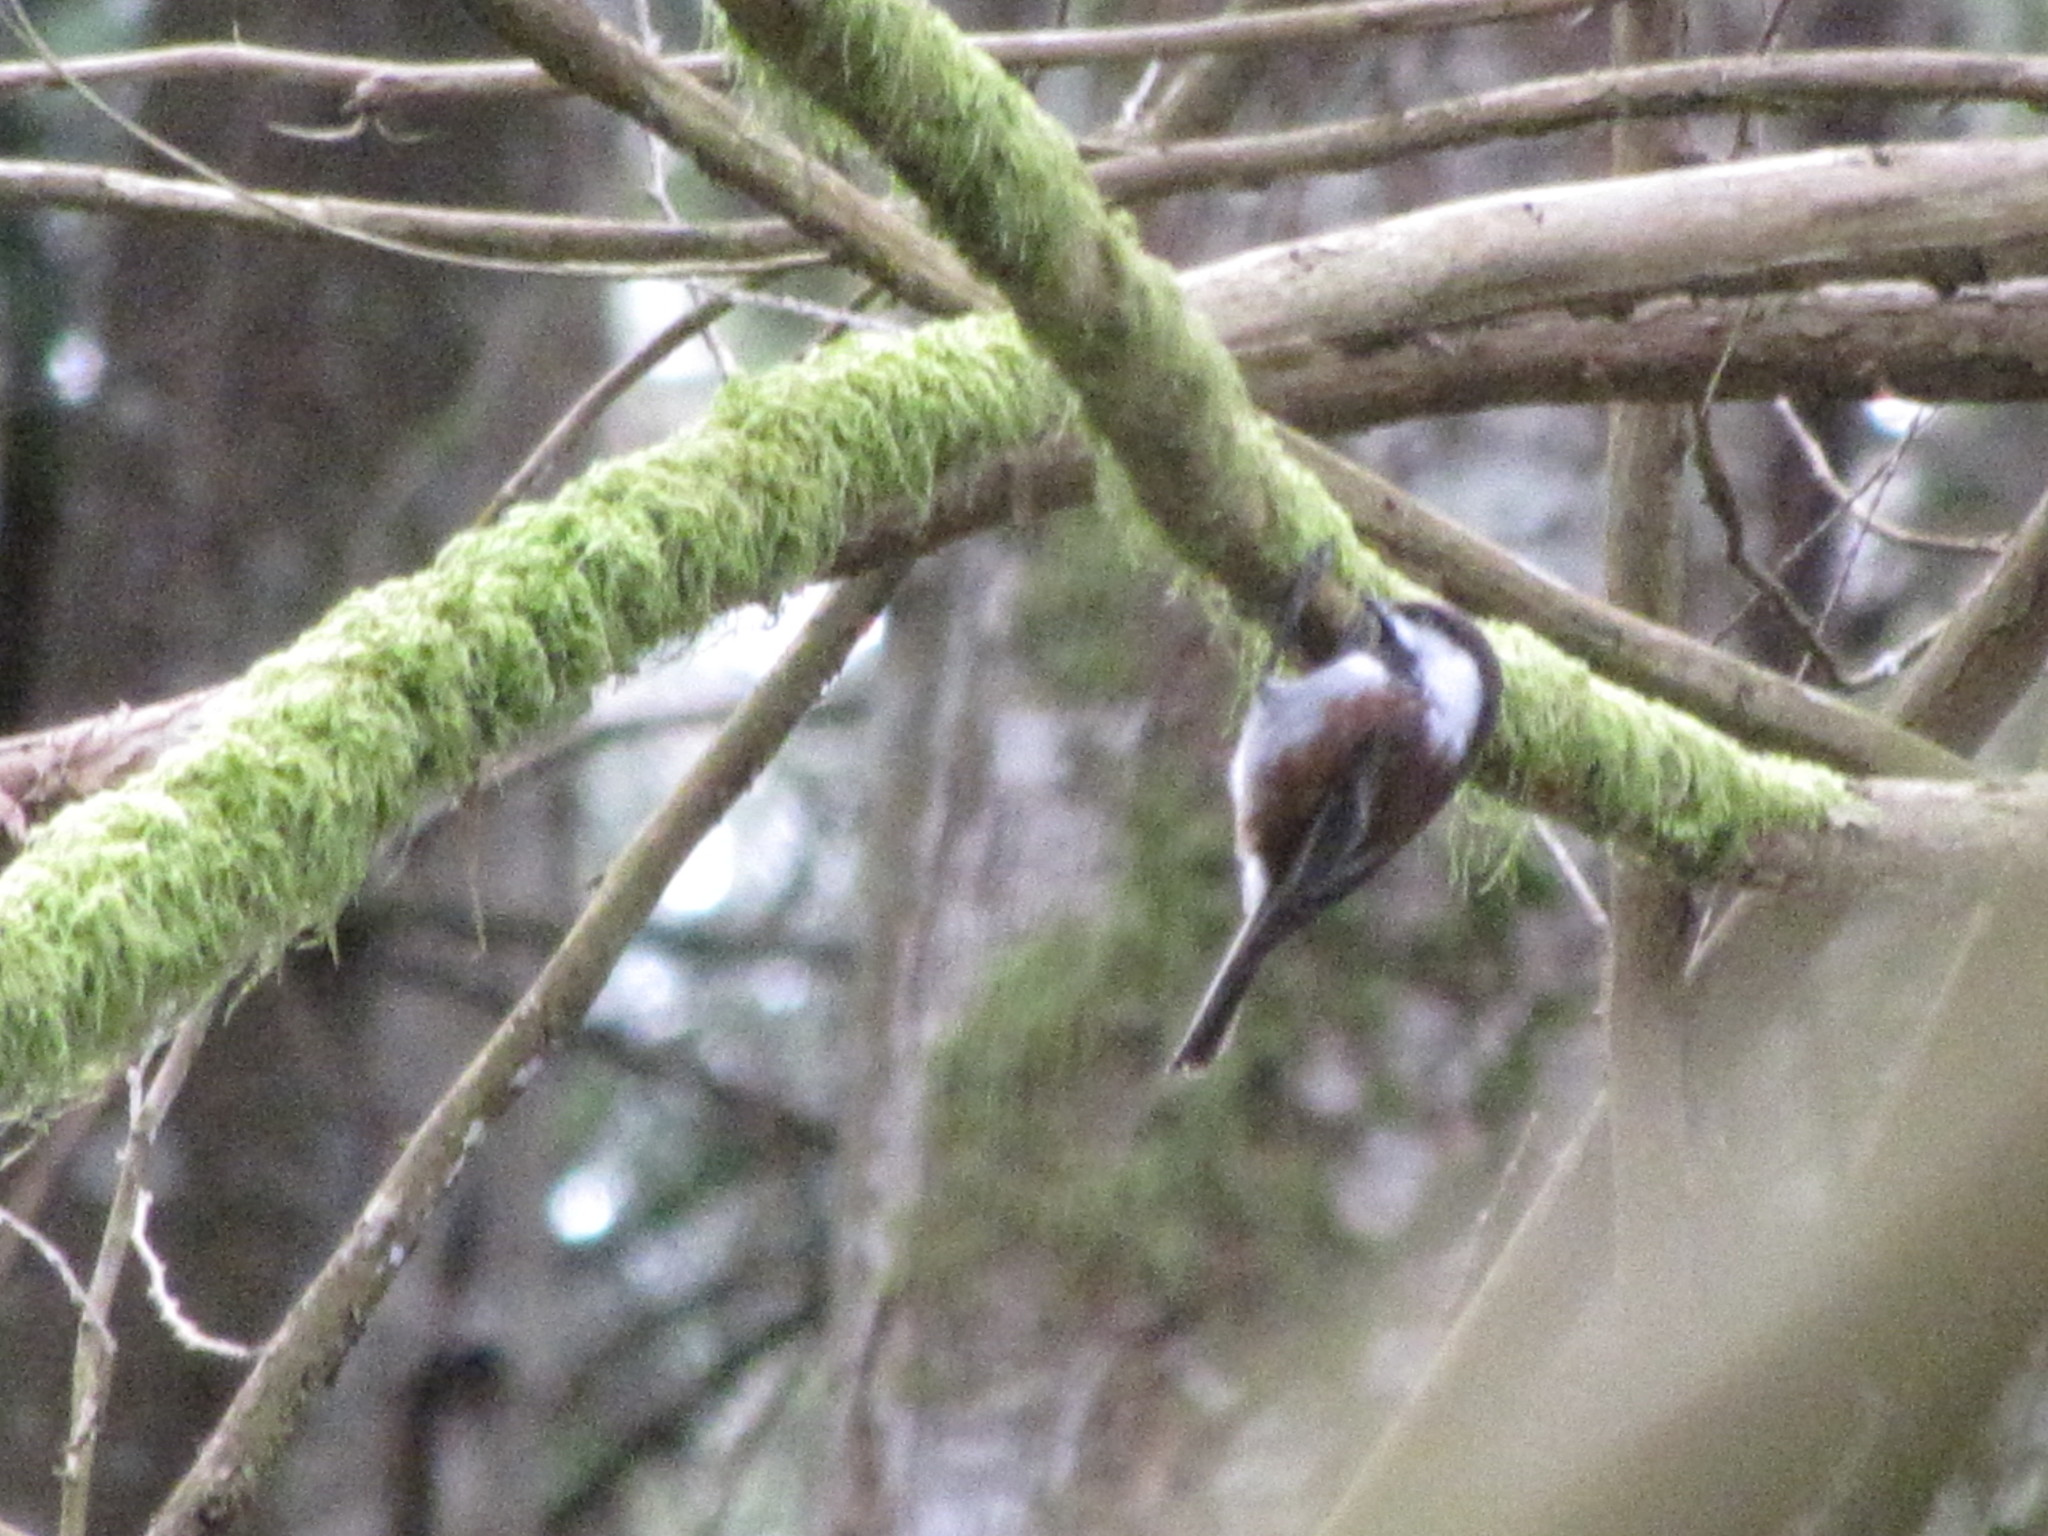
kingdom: Animalia
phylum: Chordata
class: Aves
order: Passeriformes
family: Paridae
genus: Poecile
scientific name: Poecile rufescens
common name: Chestnut-backed chickadee
